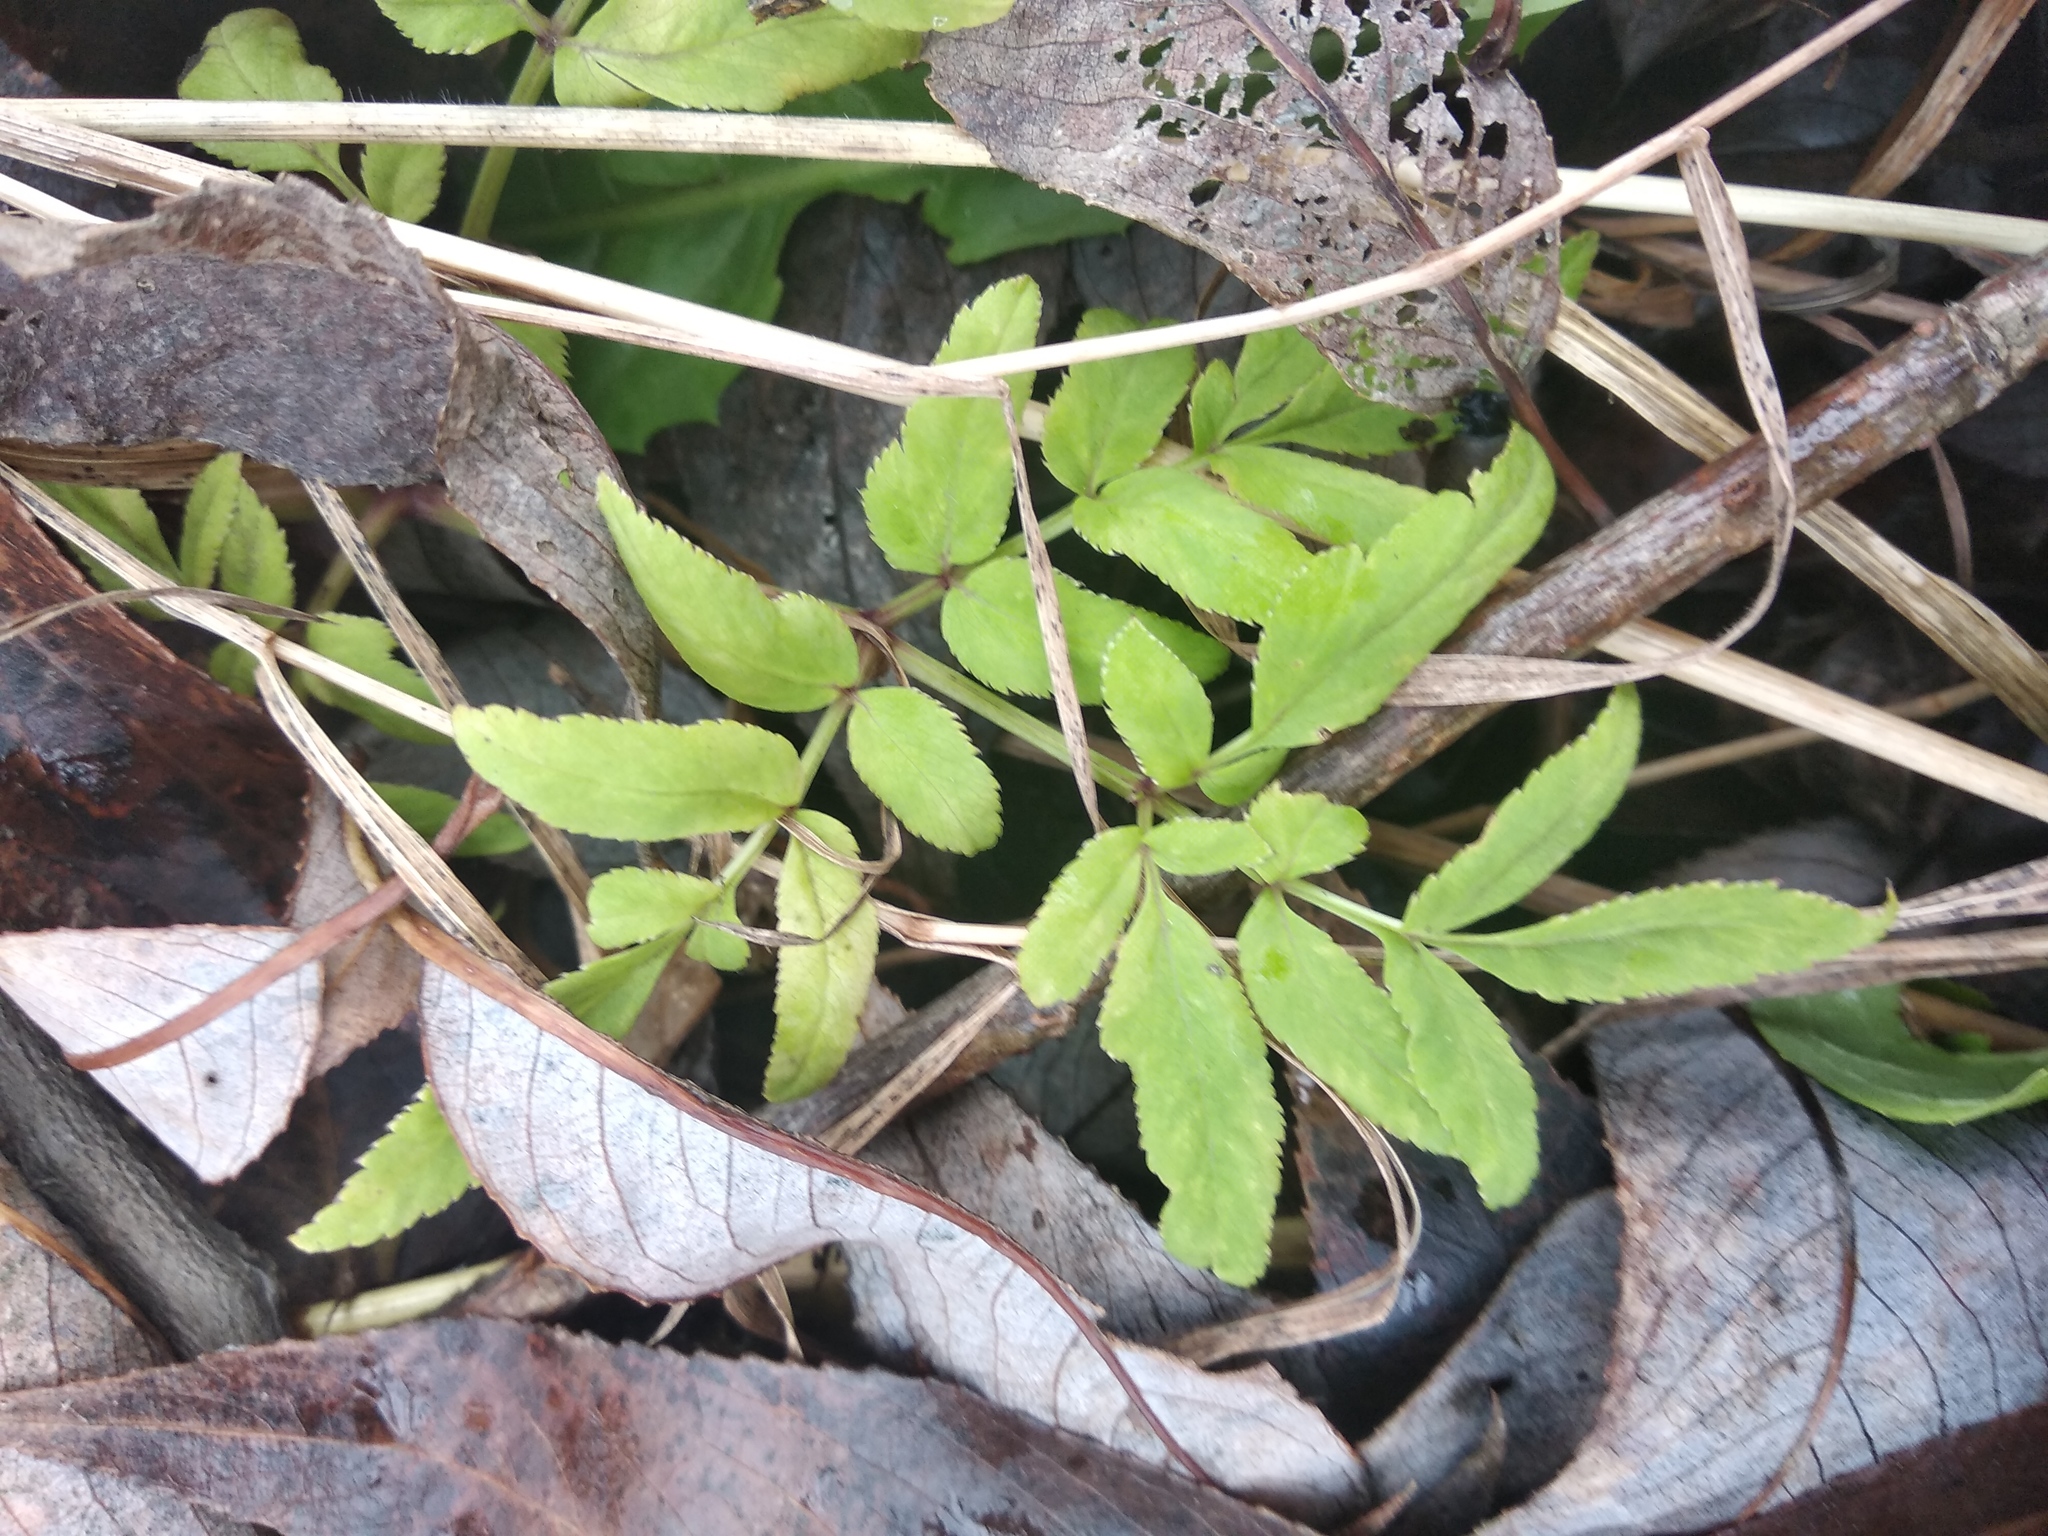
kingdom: Plantae
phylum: Tracheophyta
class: Magnoliopsida
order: Apiales
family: Apiaceae
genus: Angelica
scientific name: Angelica sylvestris
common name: Wild angelica
